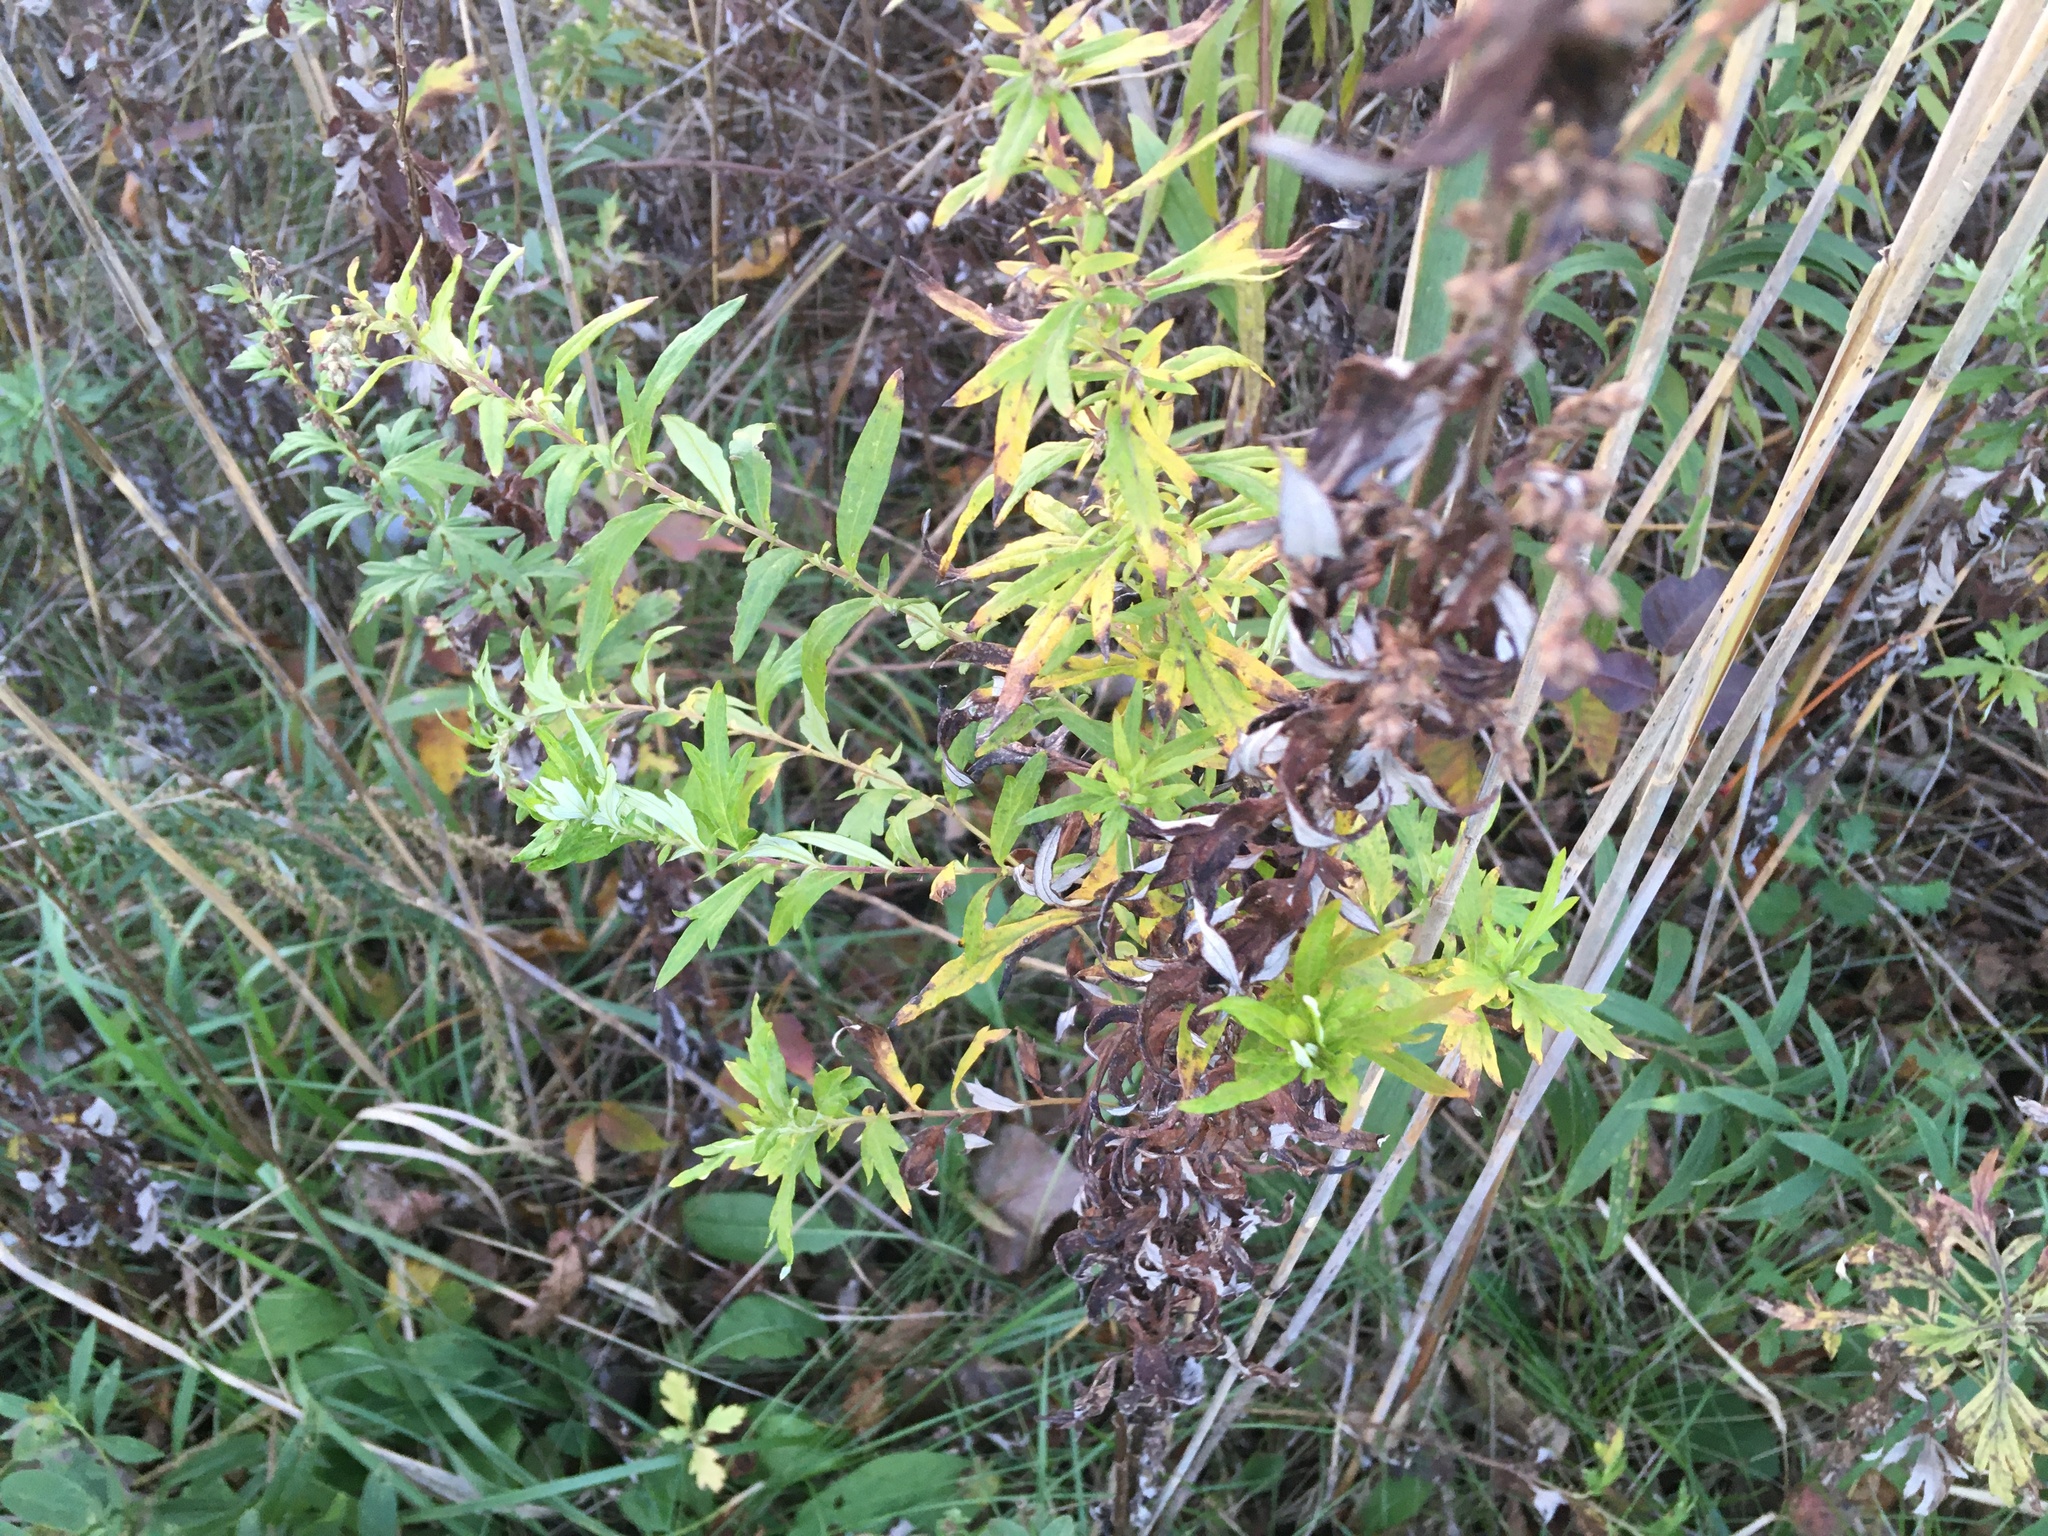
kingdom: Plantae
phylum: Tracheophyta
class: Magnoliopsida
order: Asterales
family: Asteraceae
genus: Artemisia
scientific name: Artemisia vulgaris
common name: Mugwort
